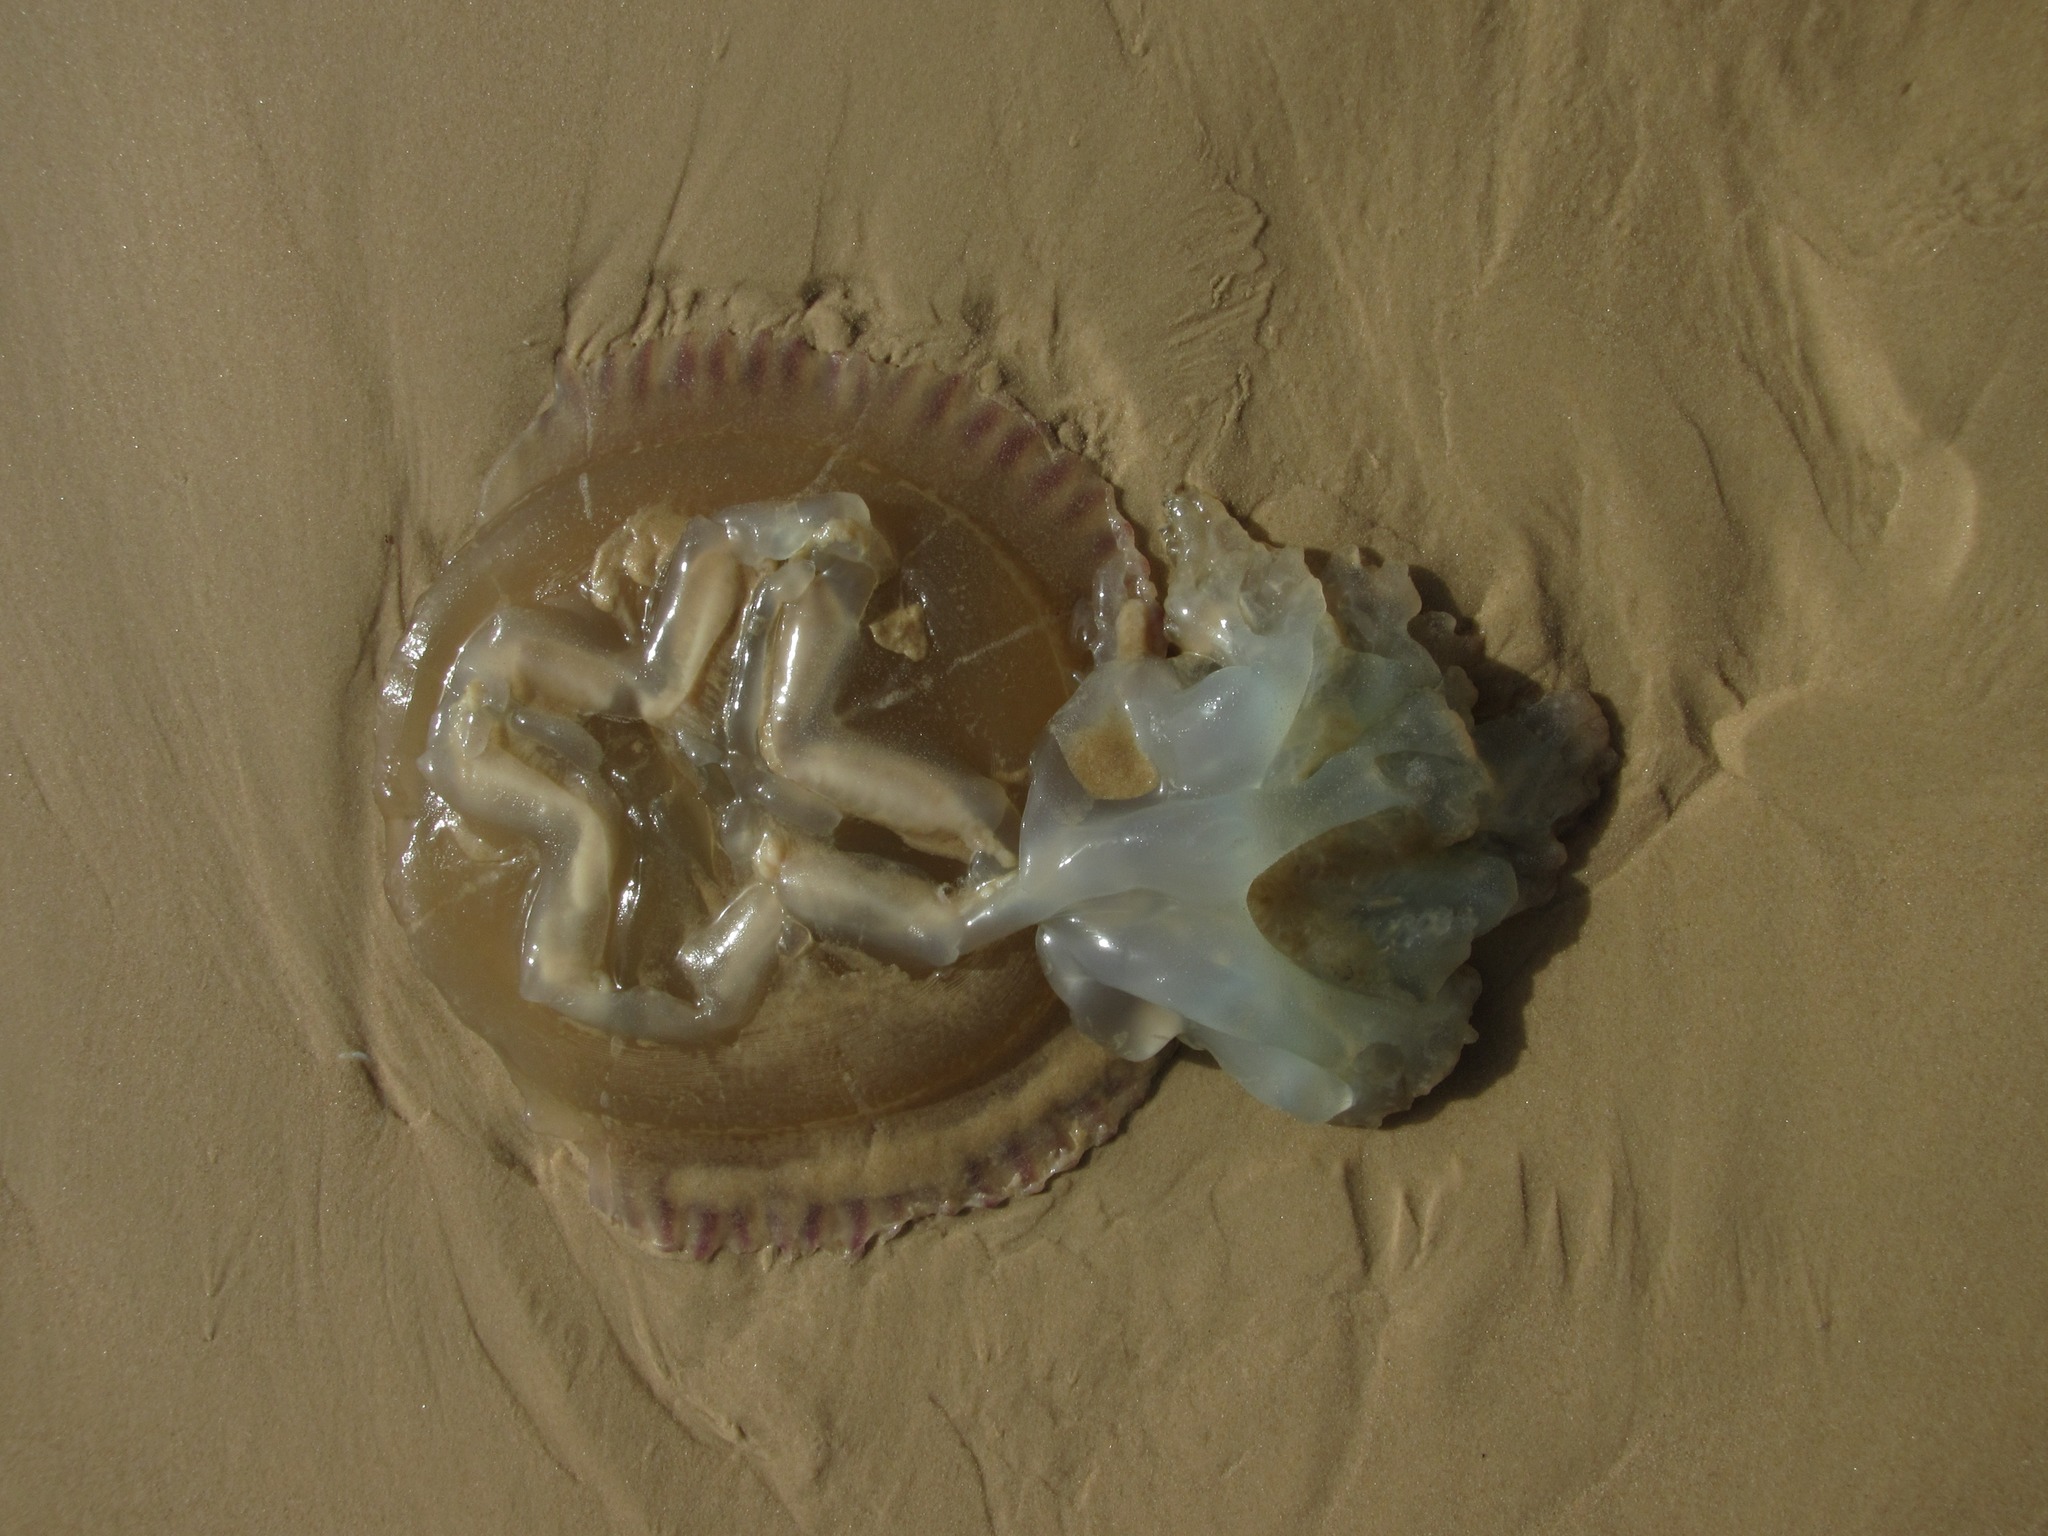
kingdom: Animalia
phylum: Cnidaria
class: Scyphozoa
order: Rhizostomeae
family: Catostylidae
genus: Catostylus
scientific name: Catostylus tagi
